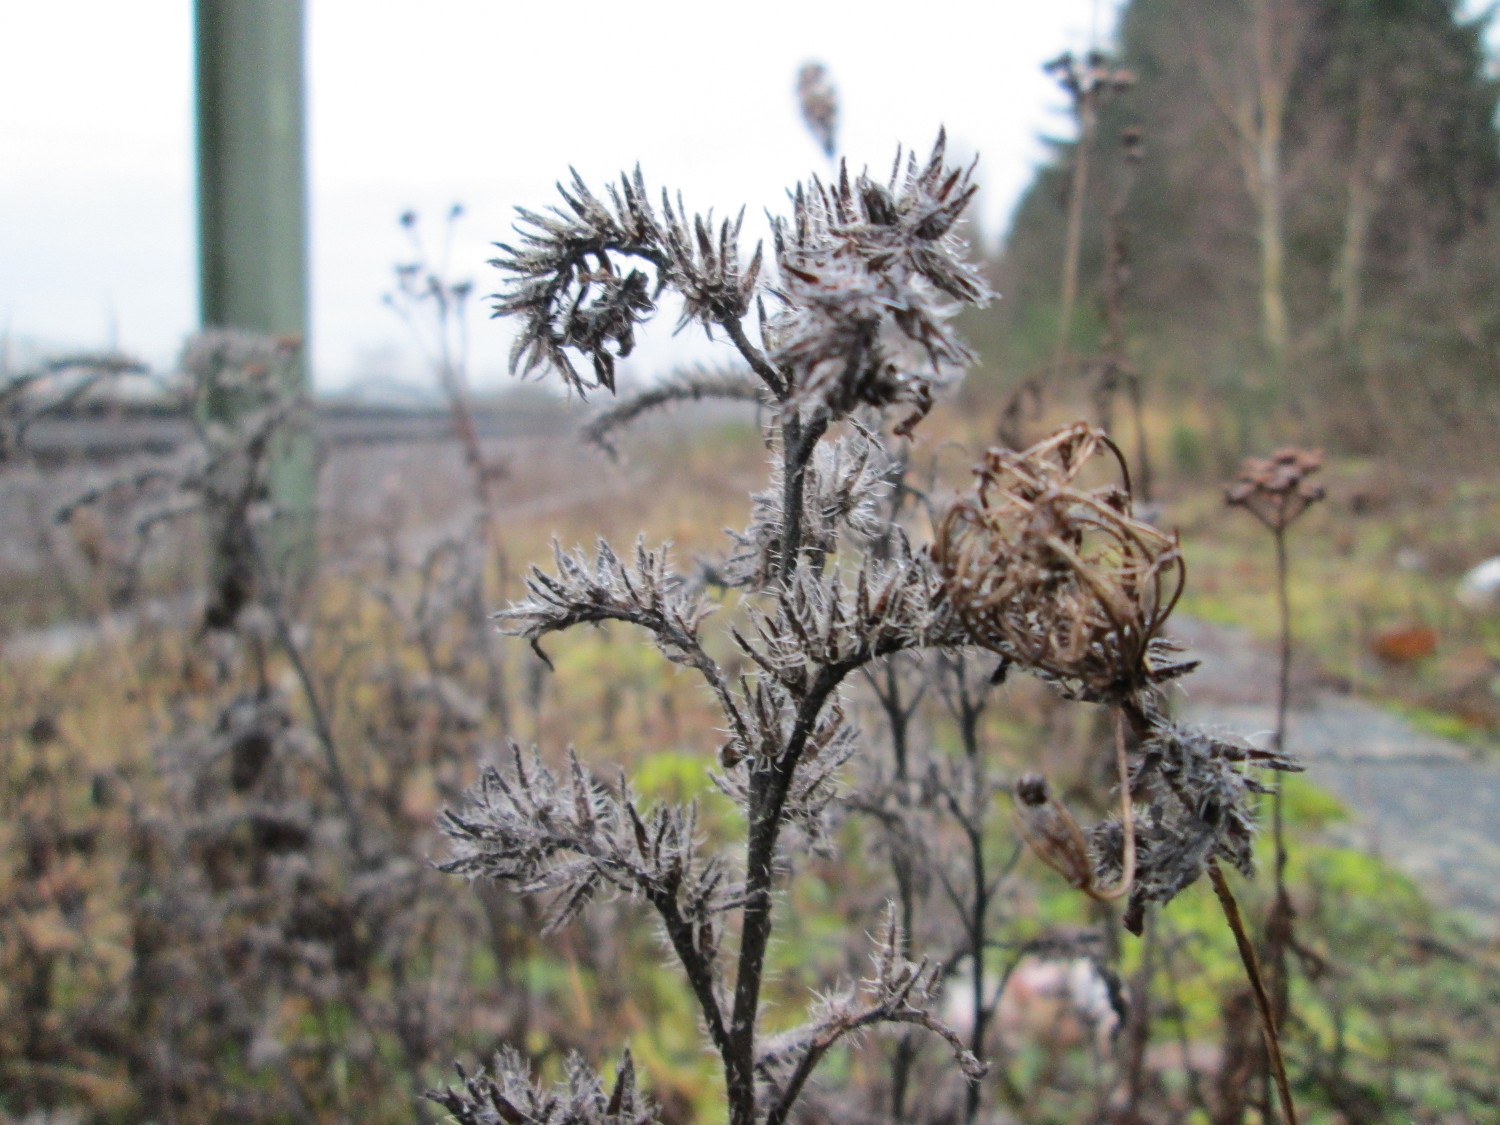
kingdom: Plantae
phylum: Tracheophyta
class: Magnoliopsida
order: Boraginales
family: Boraginaceae
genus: Echium
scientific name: Echium vulgare
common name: Common viper's bugloss
